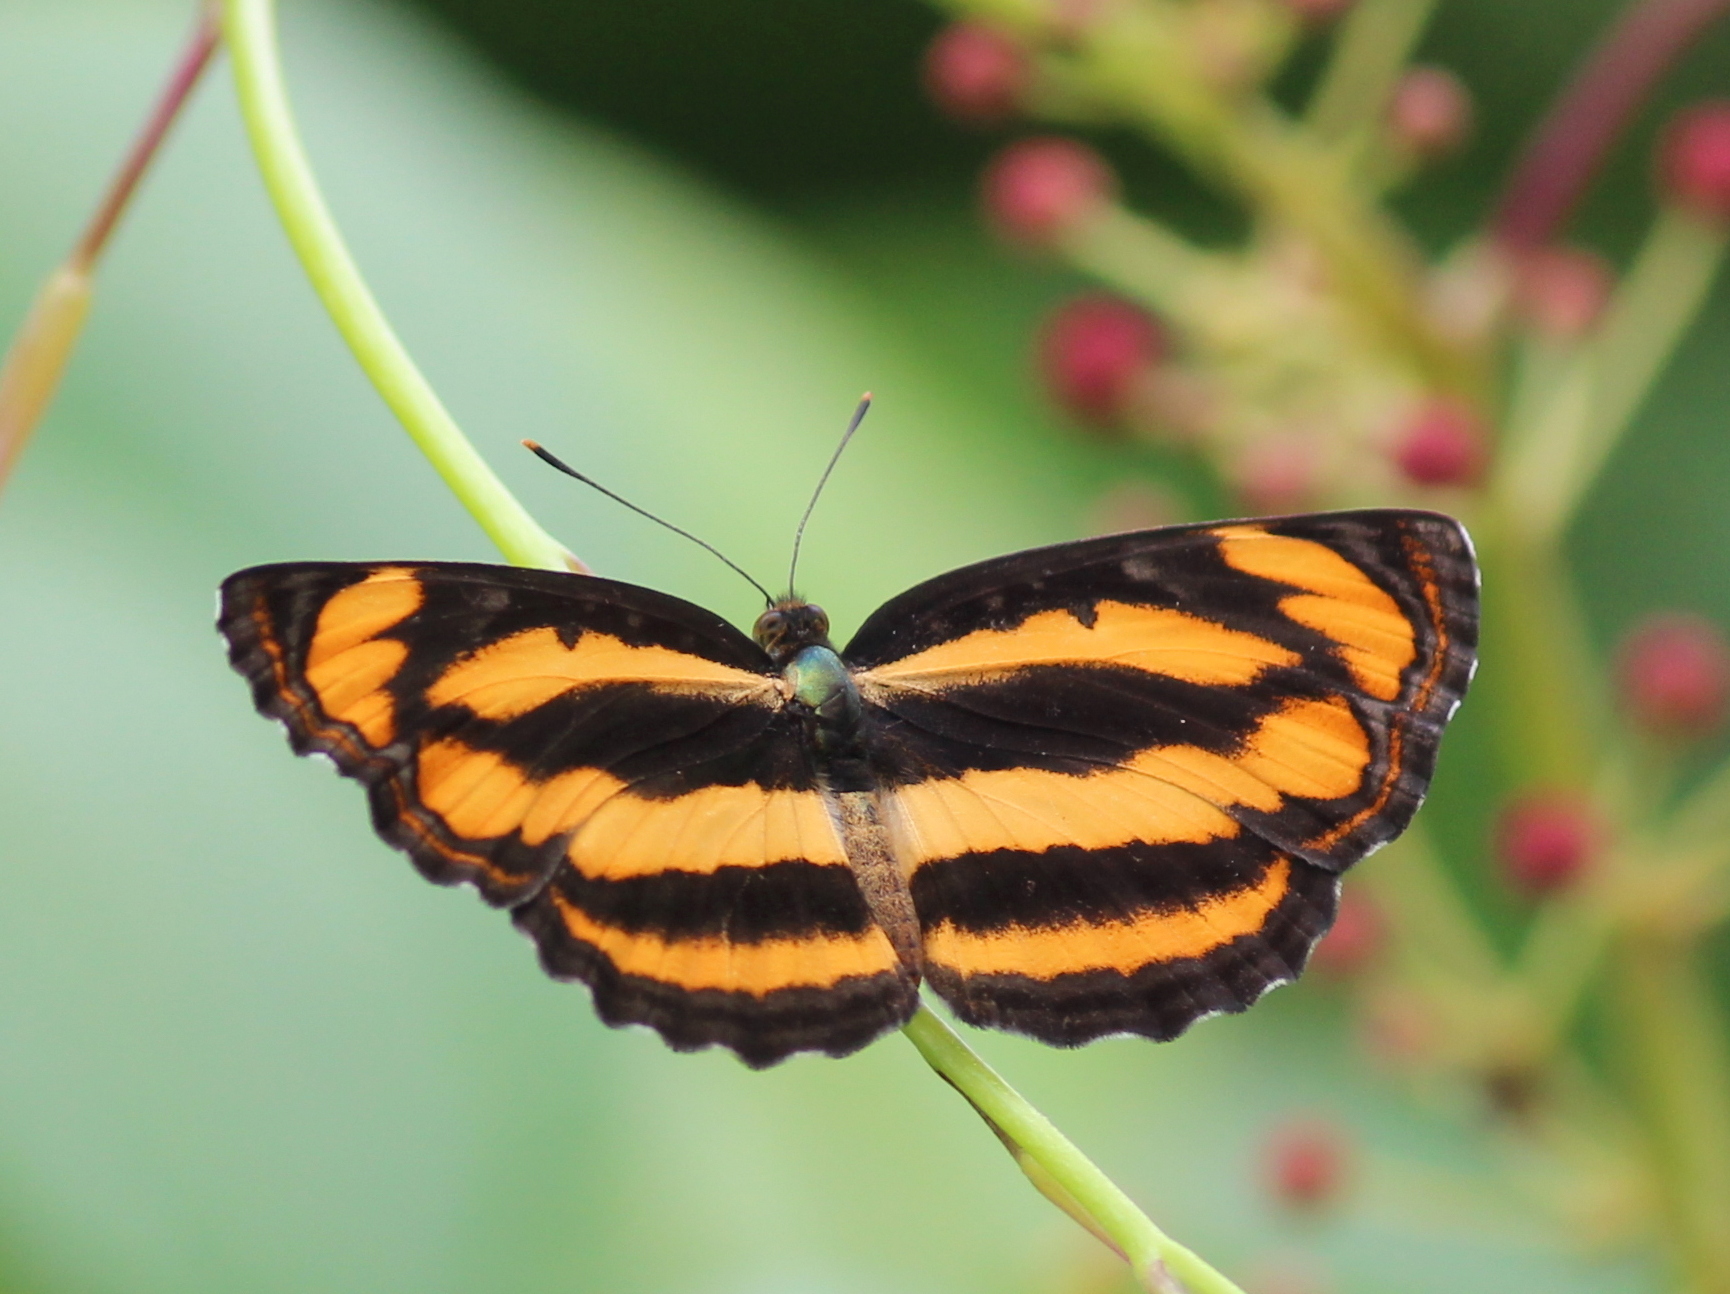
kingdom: Animalia
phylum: Arthropoda
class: Insecta
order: Lepidoptera
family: Nymphalidae
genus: Pantoporia
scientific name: Pantoporia hordonia
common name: Common lascar
